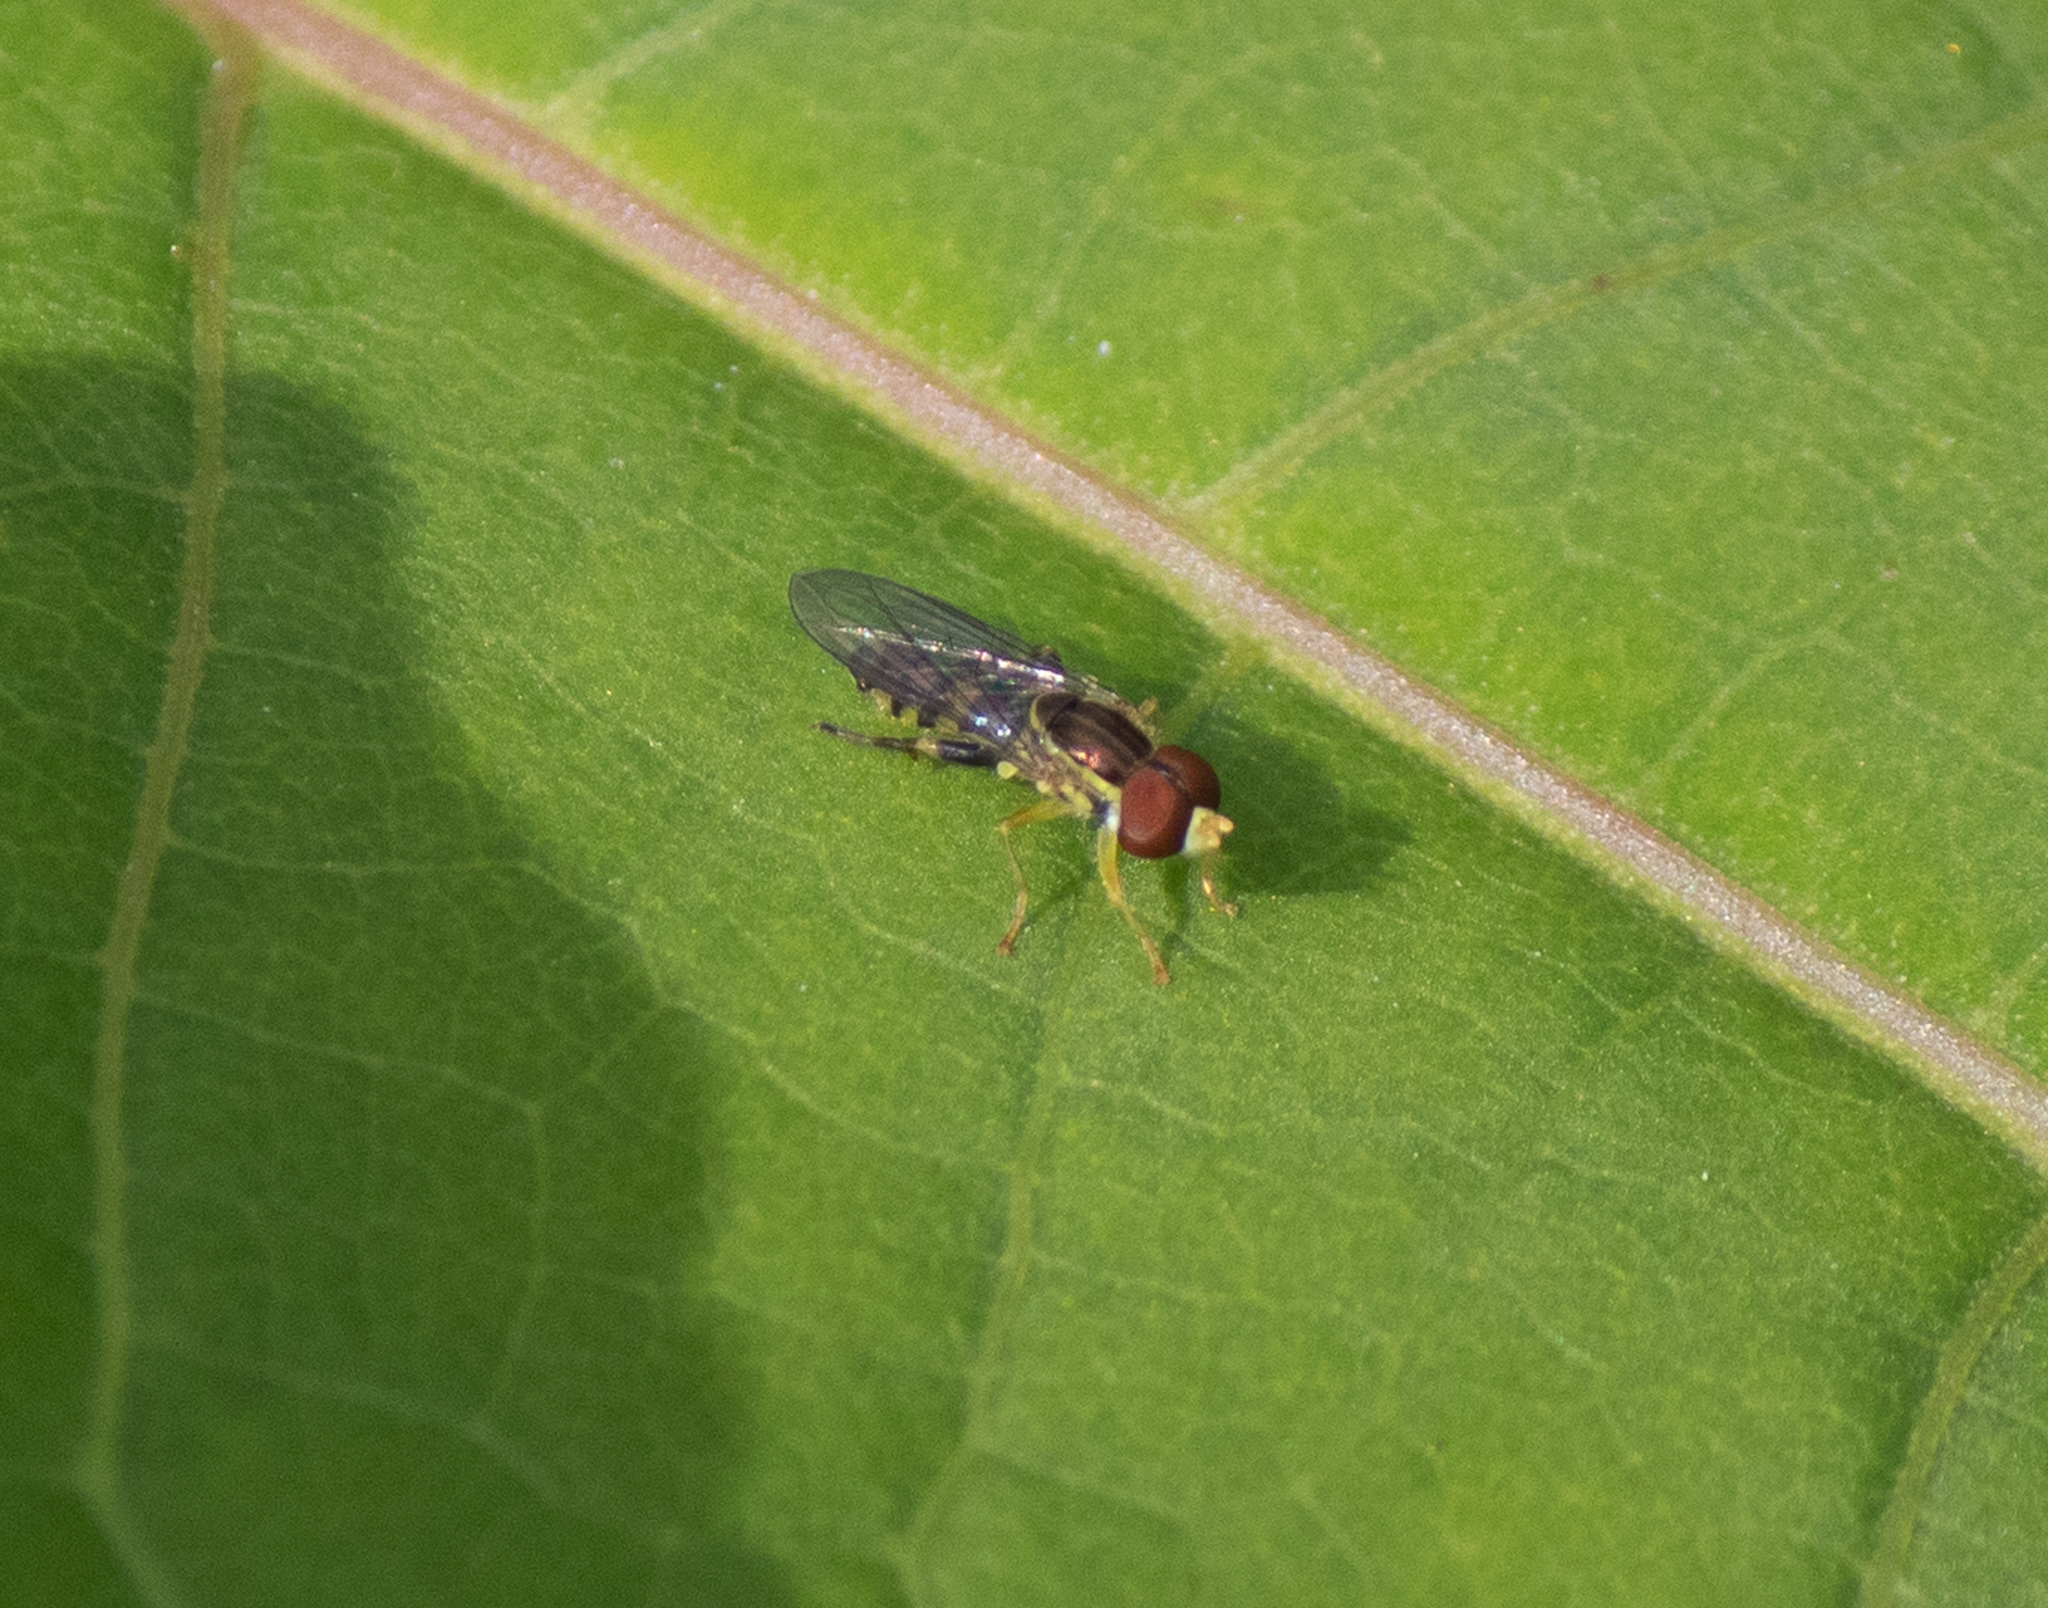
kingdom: Animalia
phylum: Arthropoda
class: Insecta
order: Diptera
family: Syrphidae
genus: Toxomerus
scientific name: Toxomerus geminatus
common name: Eastern calligrapher
